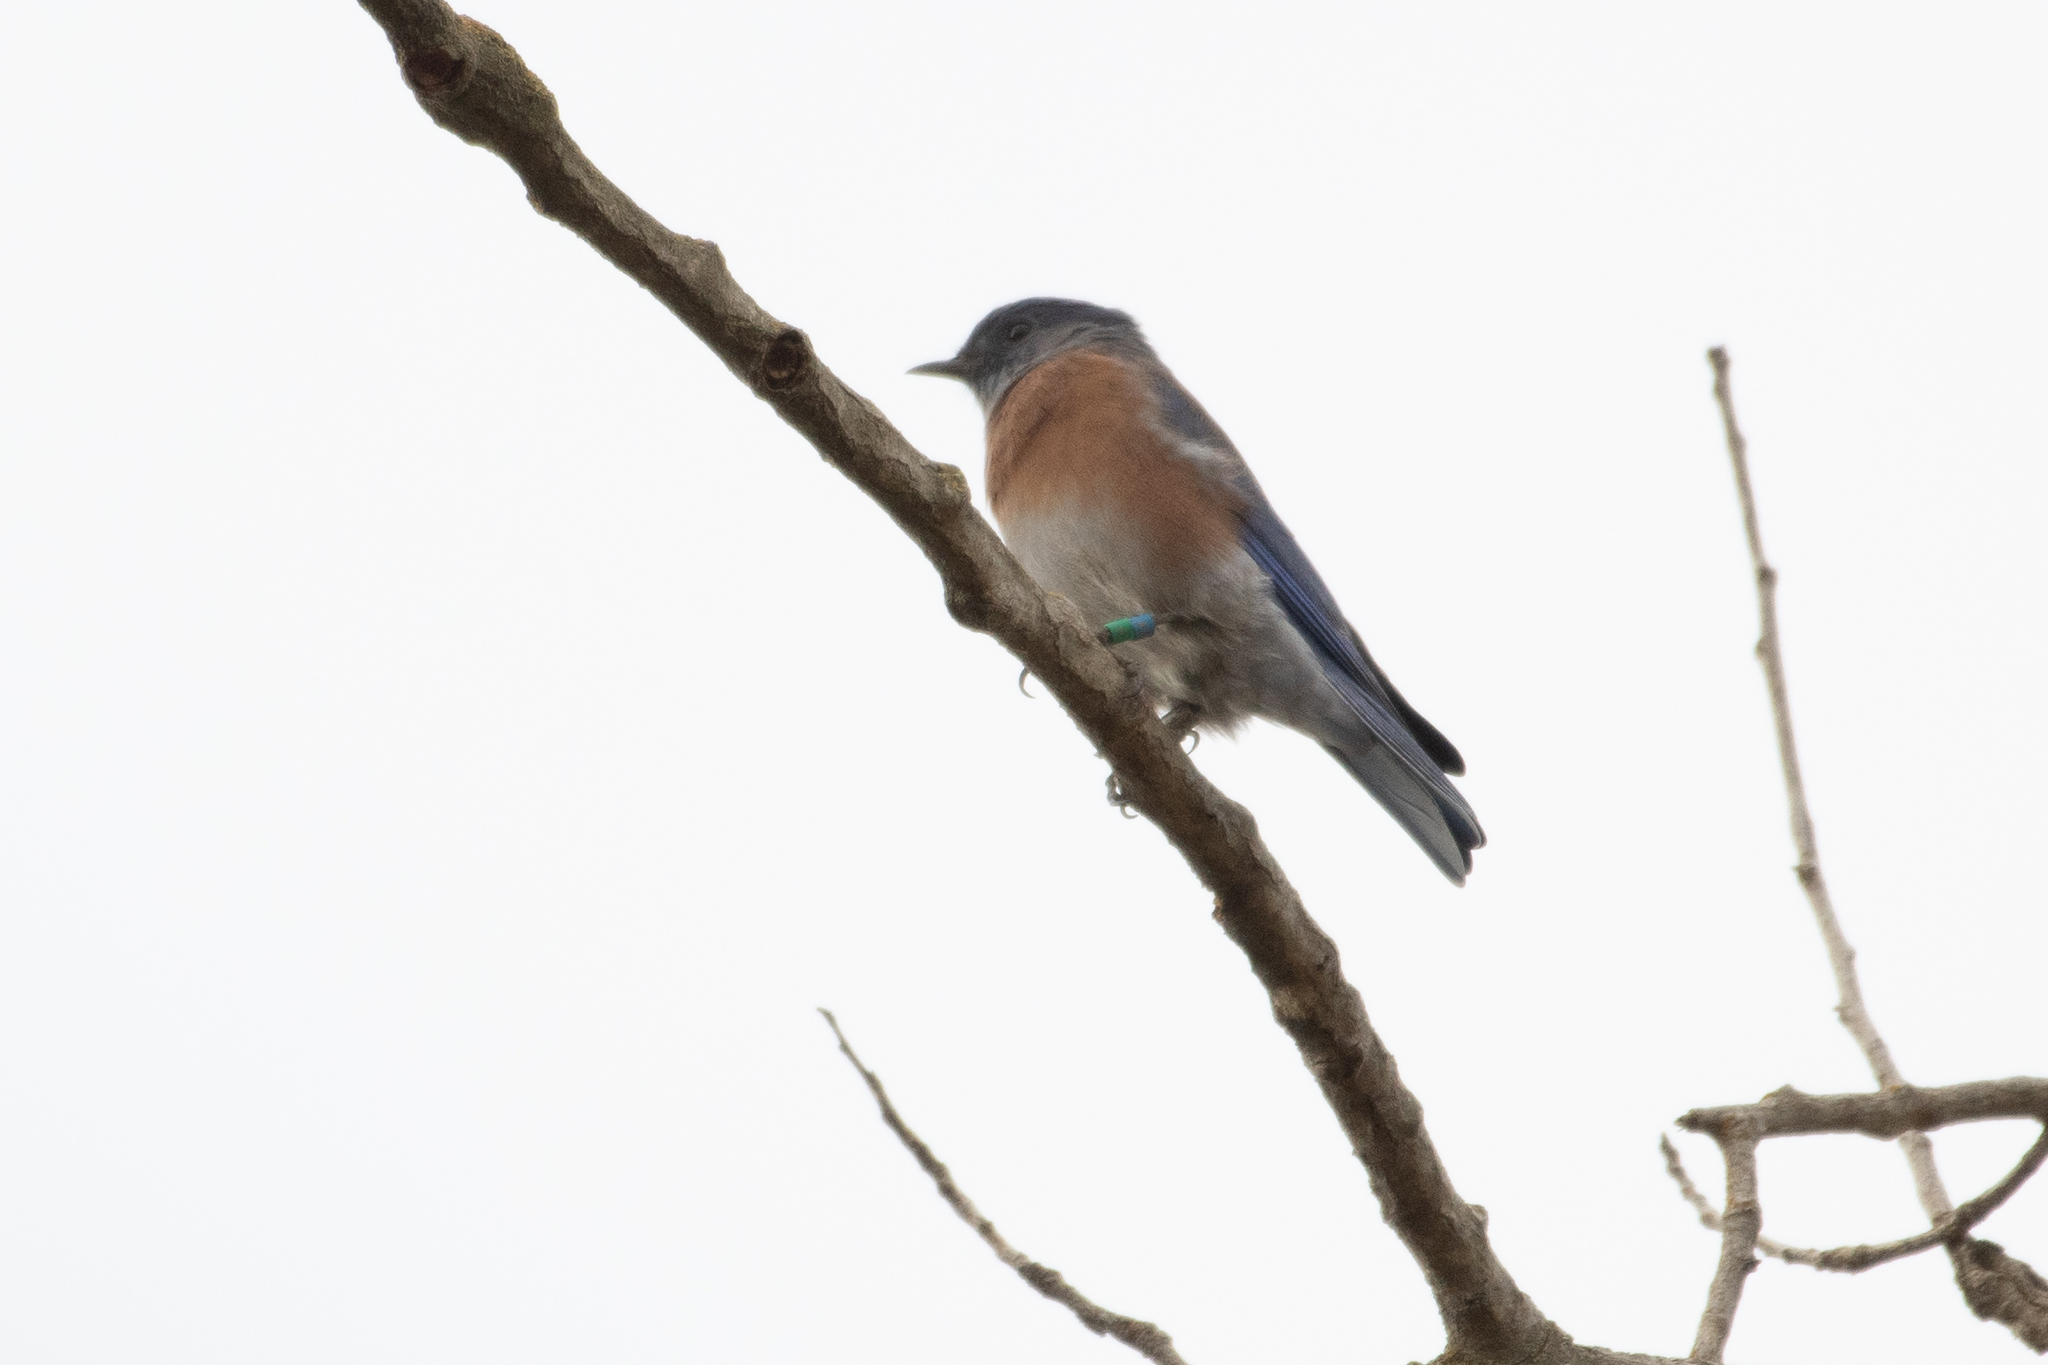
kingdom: Animalia
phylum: Chordata
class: Aves
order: Passeriformes
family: Turdidae
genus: Sialia
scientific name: Sialia mexicana
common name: Western bluebird
